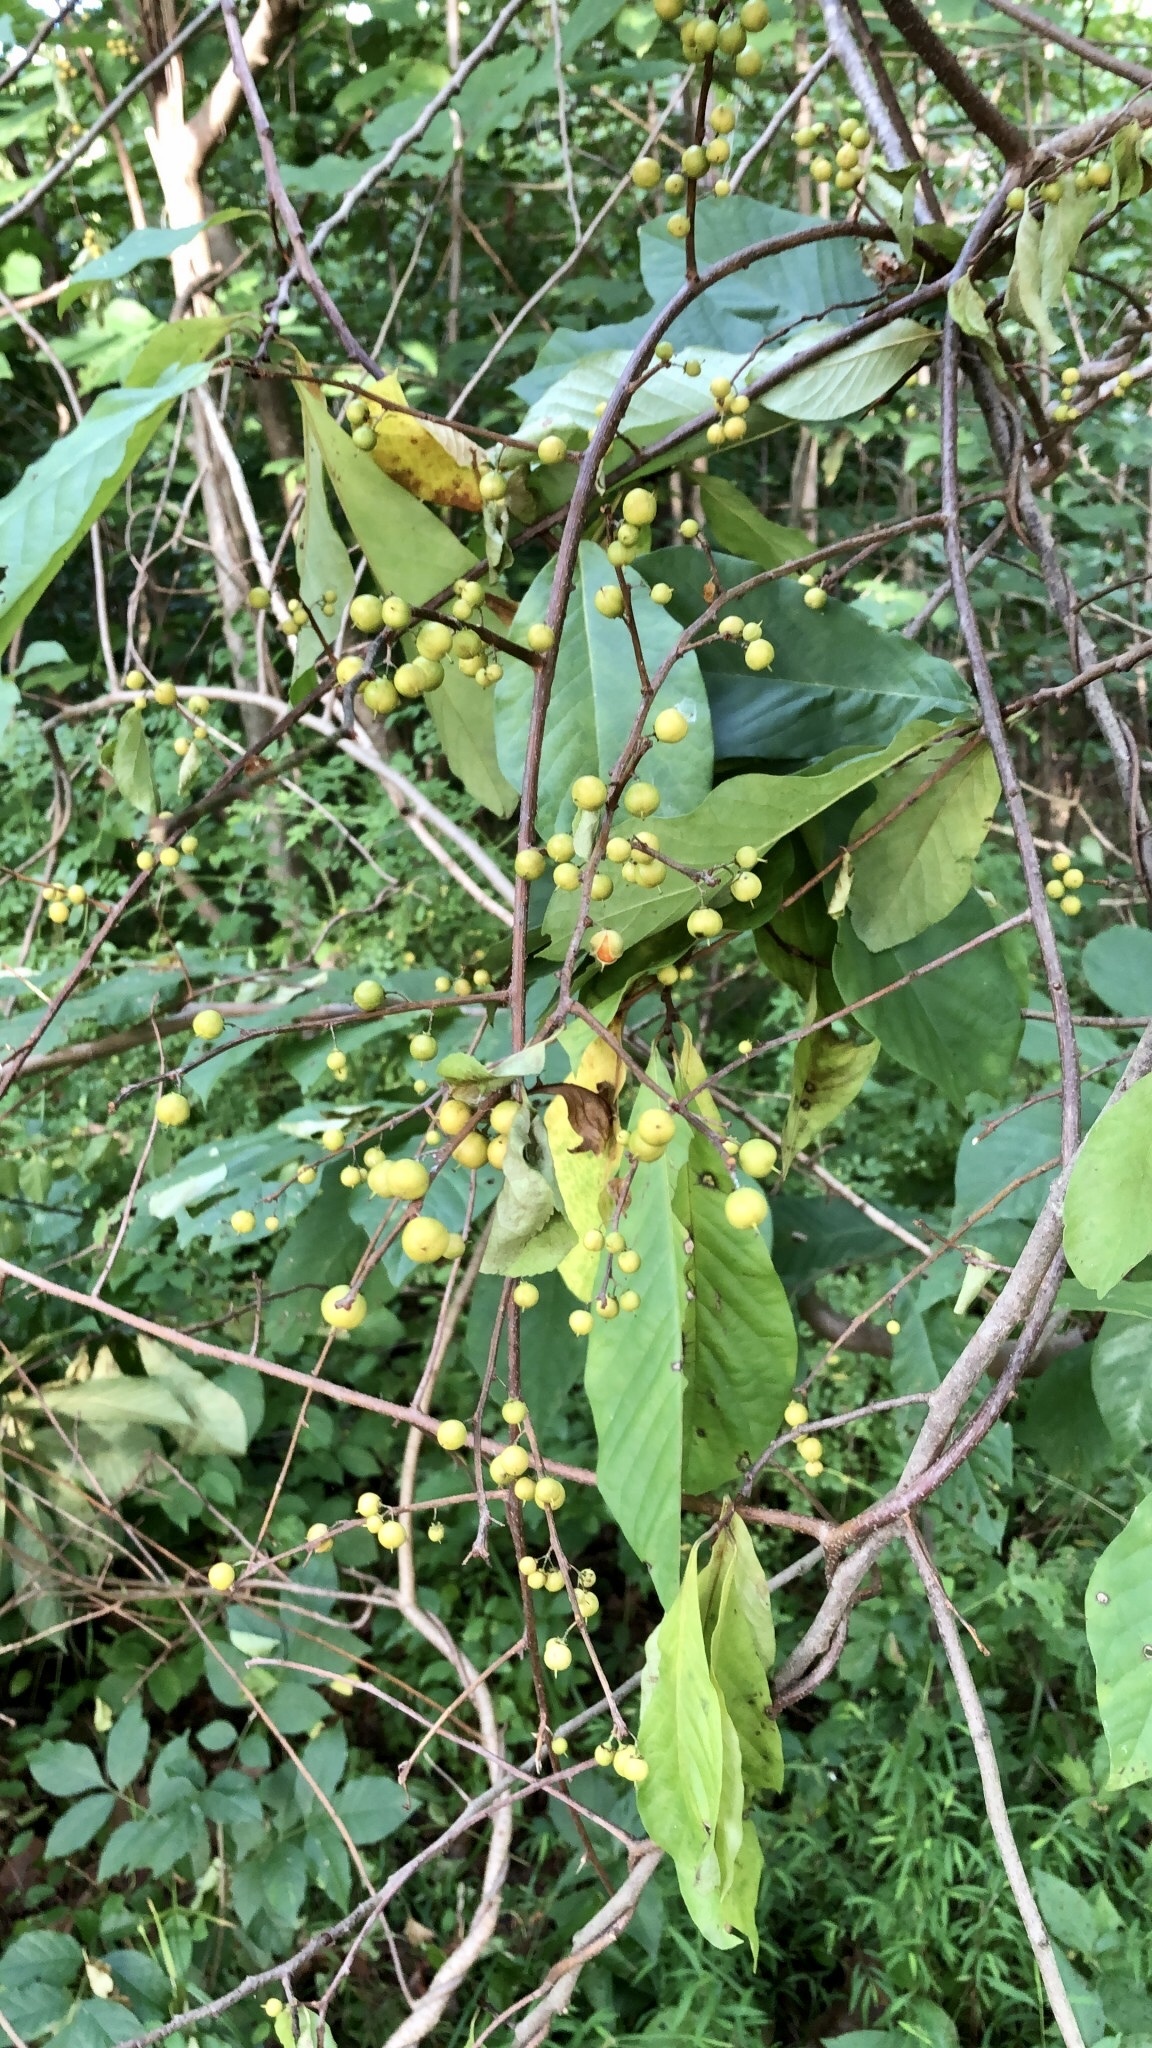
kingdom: Plantae
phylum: Tracheophyta
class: Magnoliopsida
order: Celastrales
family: Celastraceae
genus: Celastrus
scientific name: Celastrus orbiculatus
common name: Oriental bittersweet
